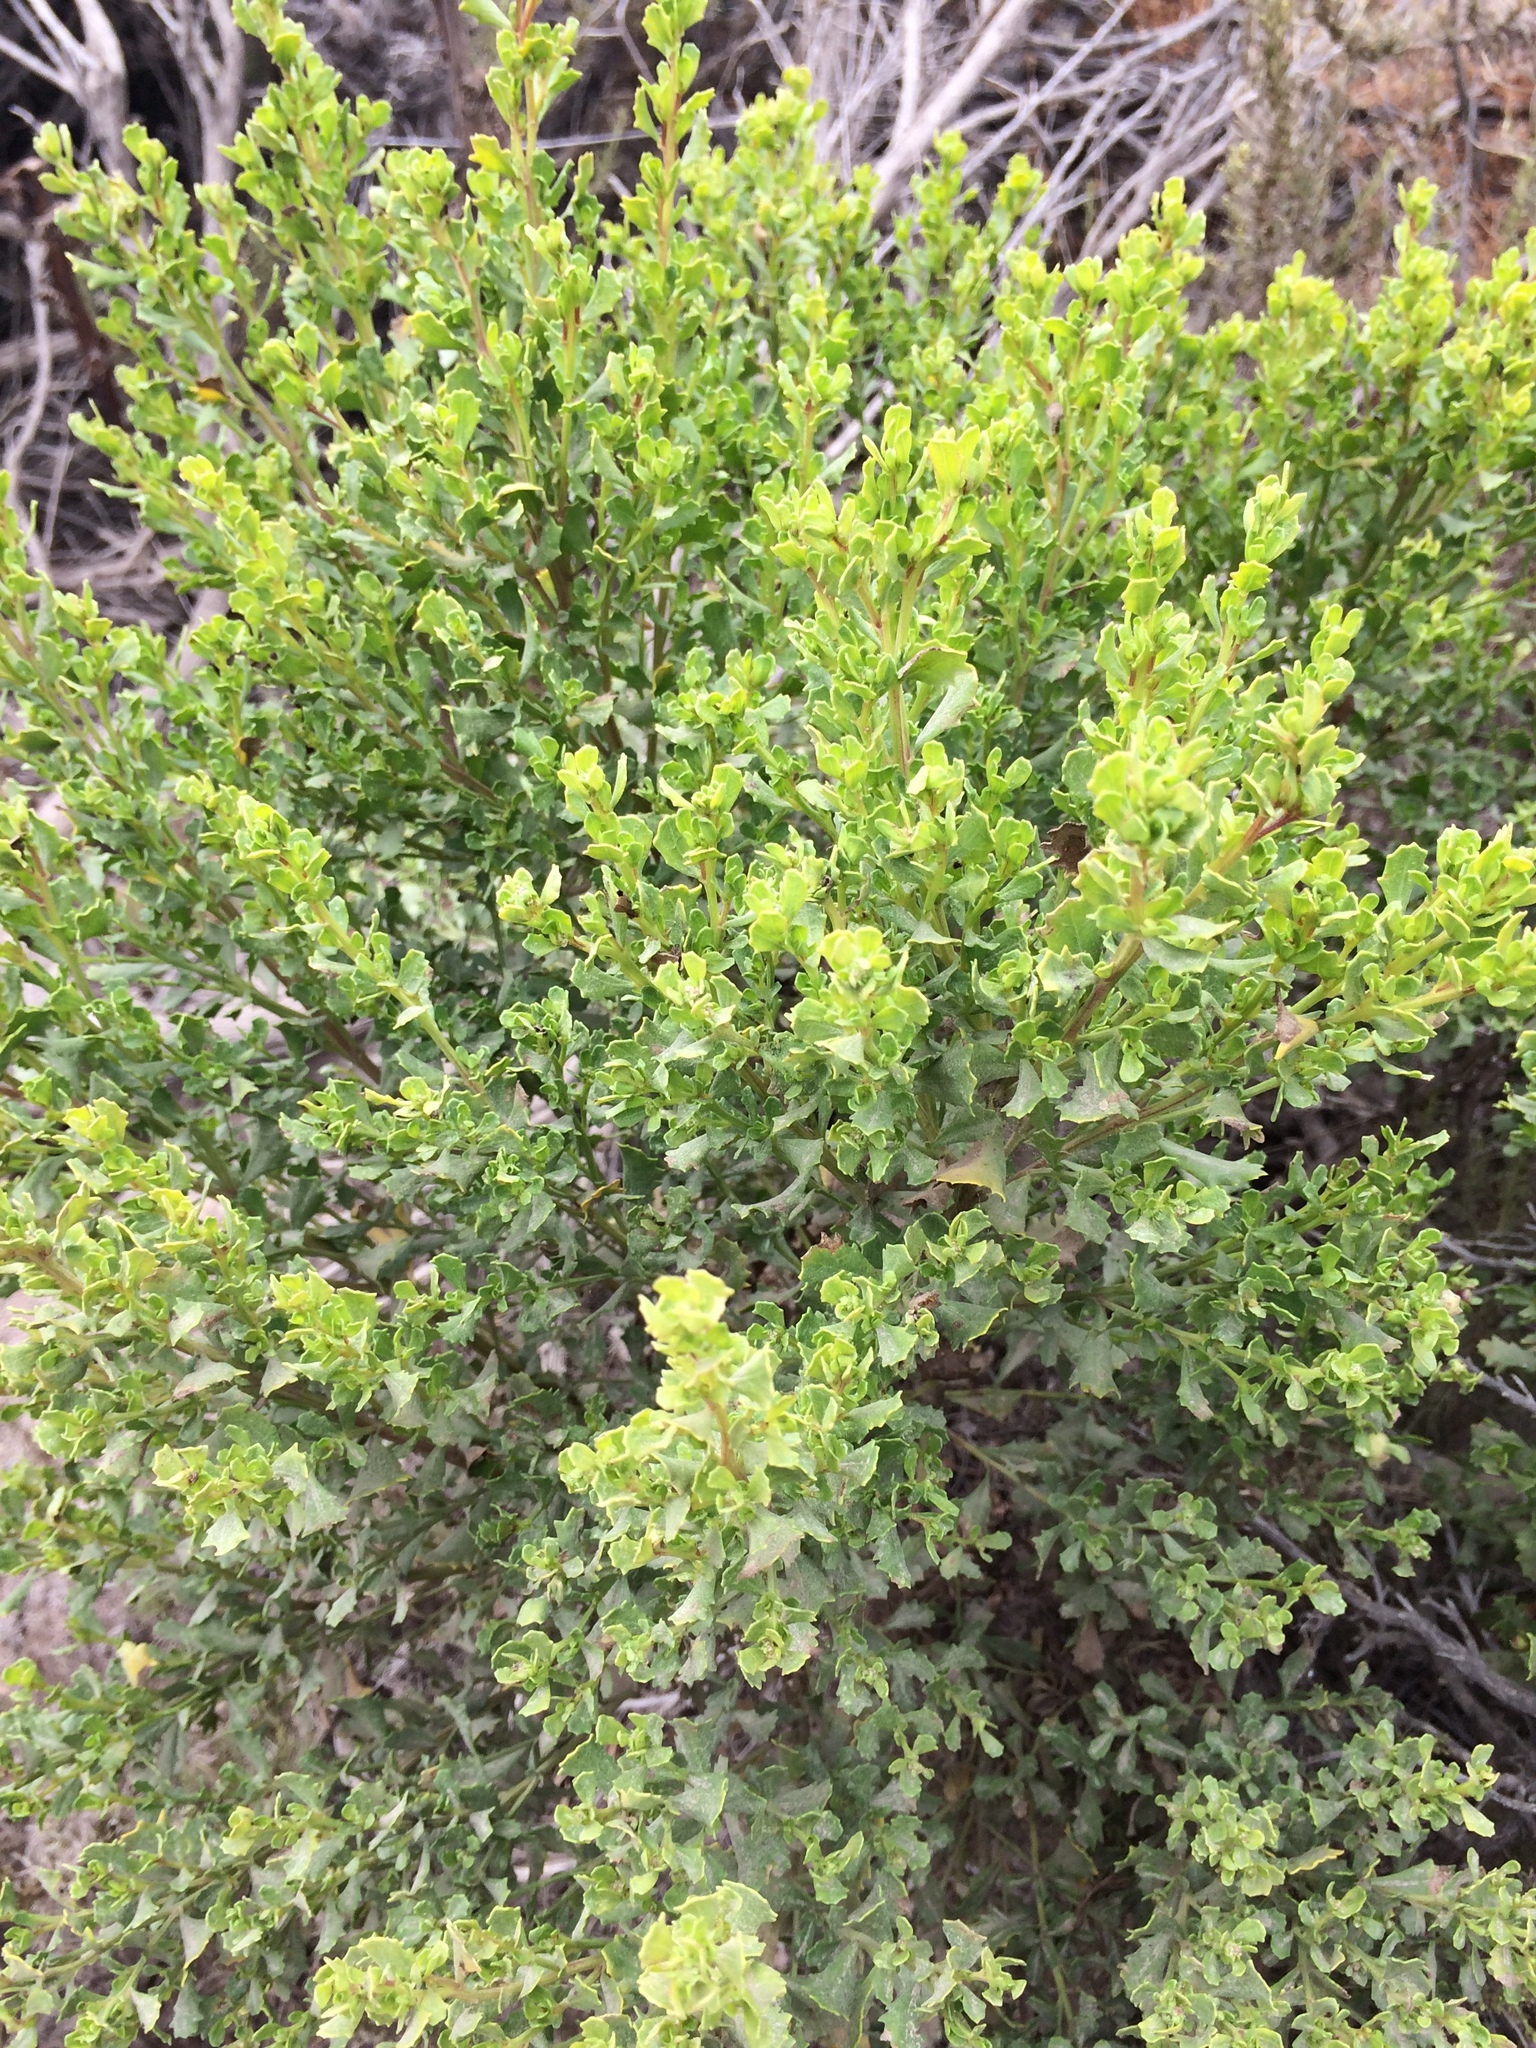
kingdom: Plantae
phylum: Tracheophyta
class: Magnoliopsida
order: Asterales
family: Asteraceae
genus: Baccharis
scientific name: Baccharis pilularis
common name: Coyotebrush
